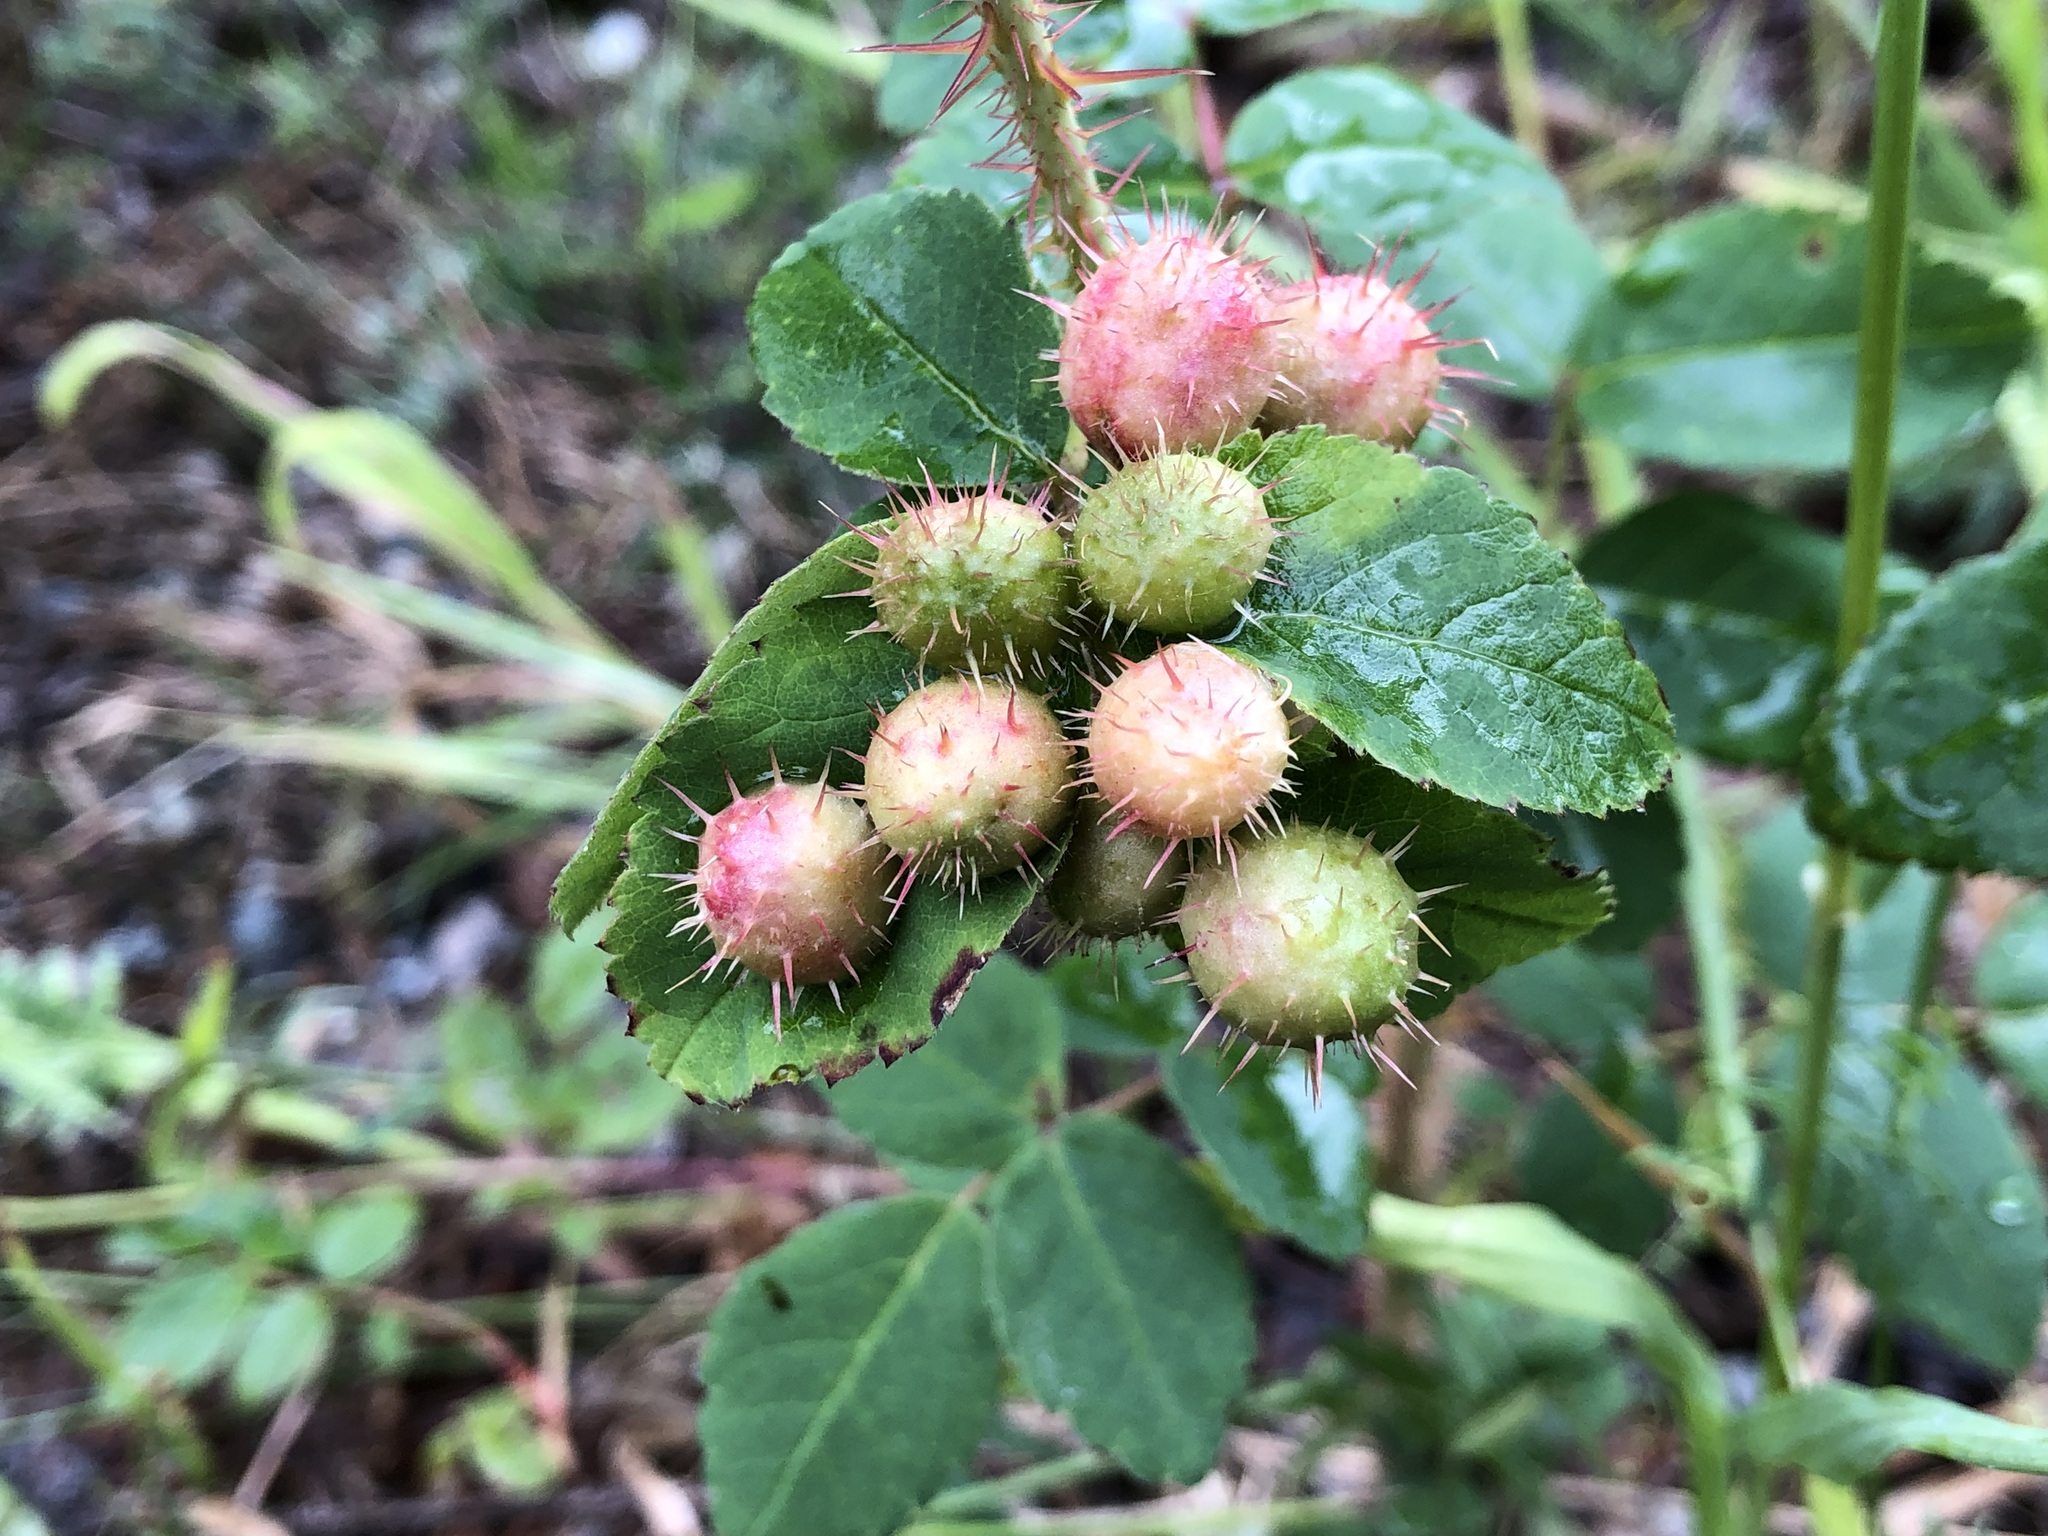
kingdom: Animalia
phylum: Arthropoda
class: Insecta
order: Hymenoptera
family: Cynipidae
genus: Diplolepis
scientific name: Diplolepis polita
